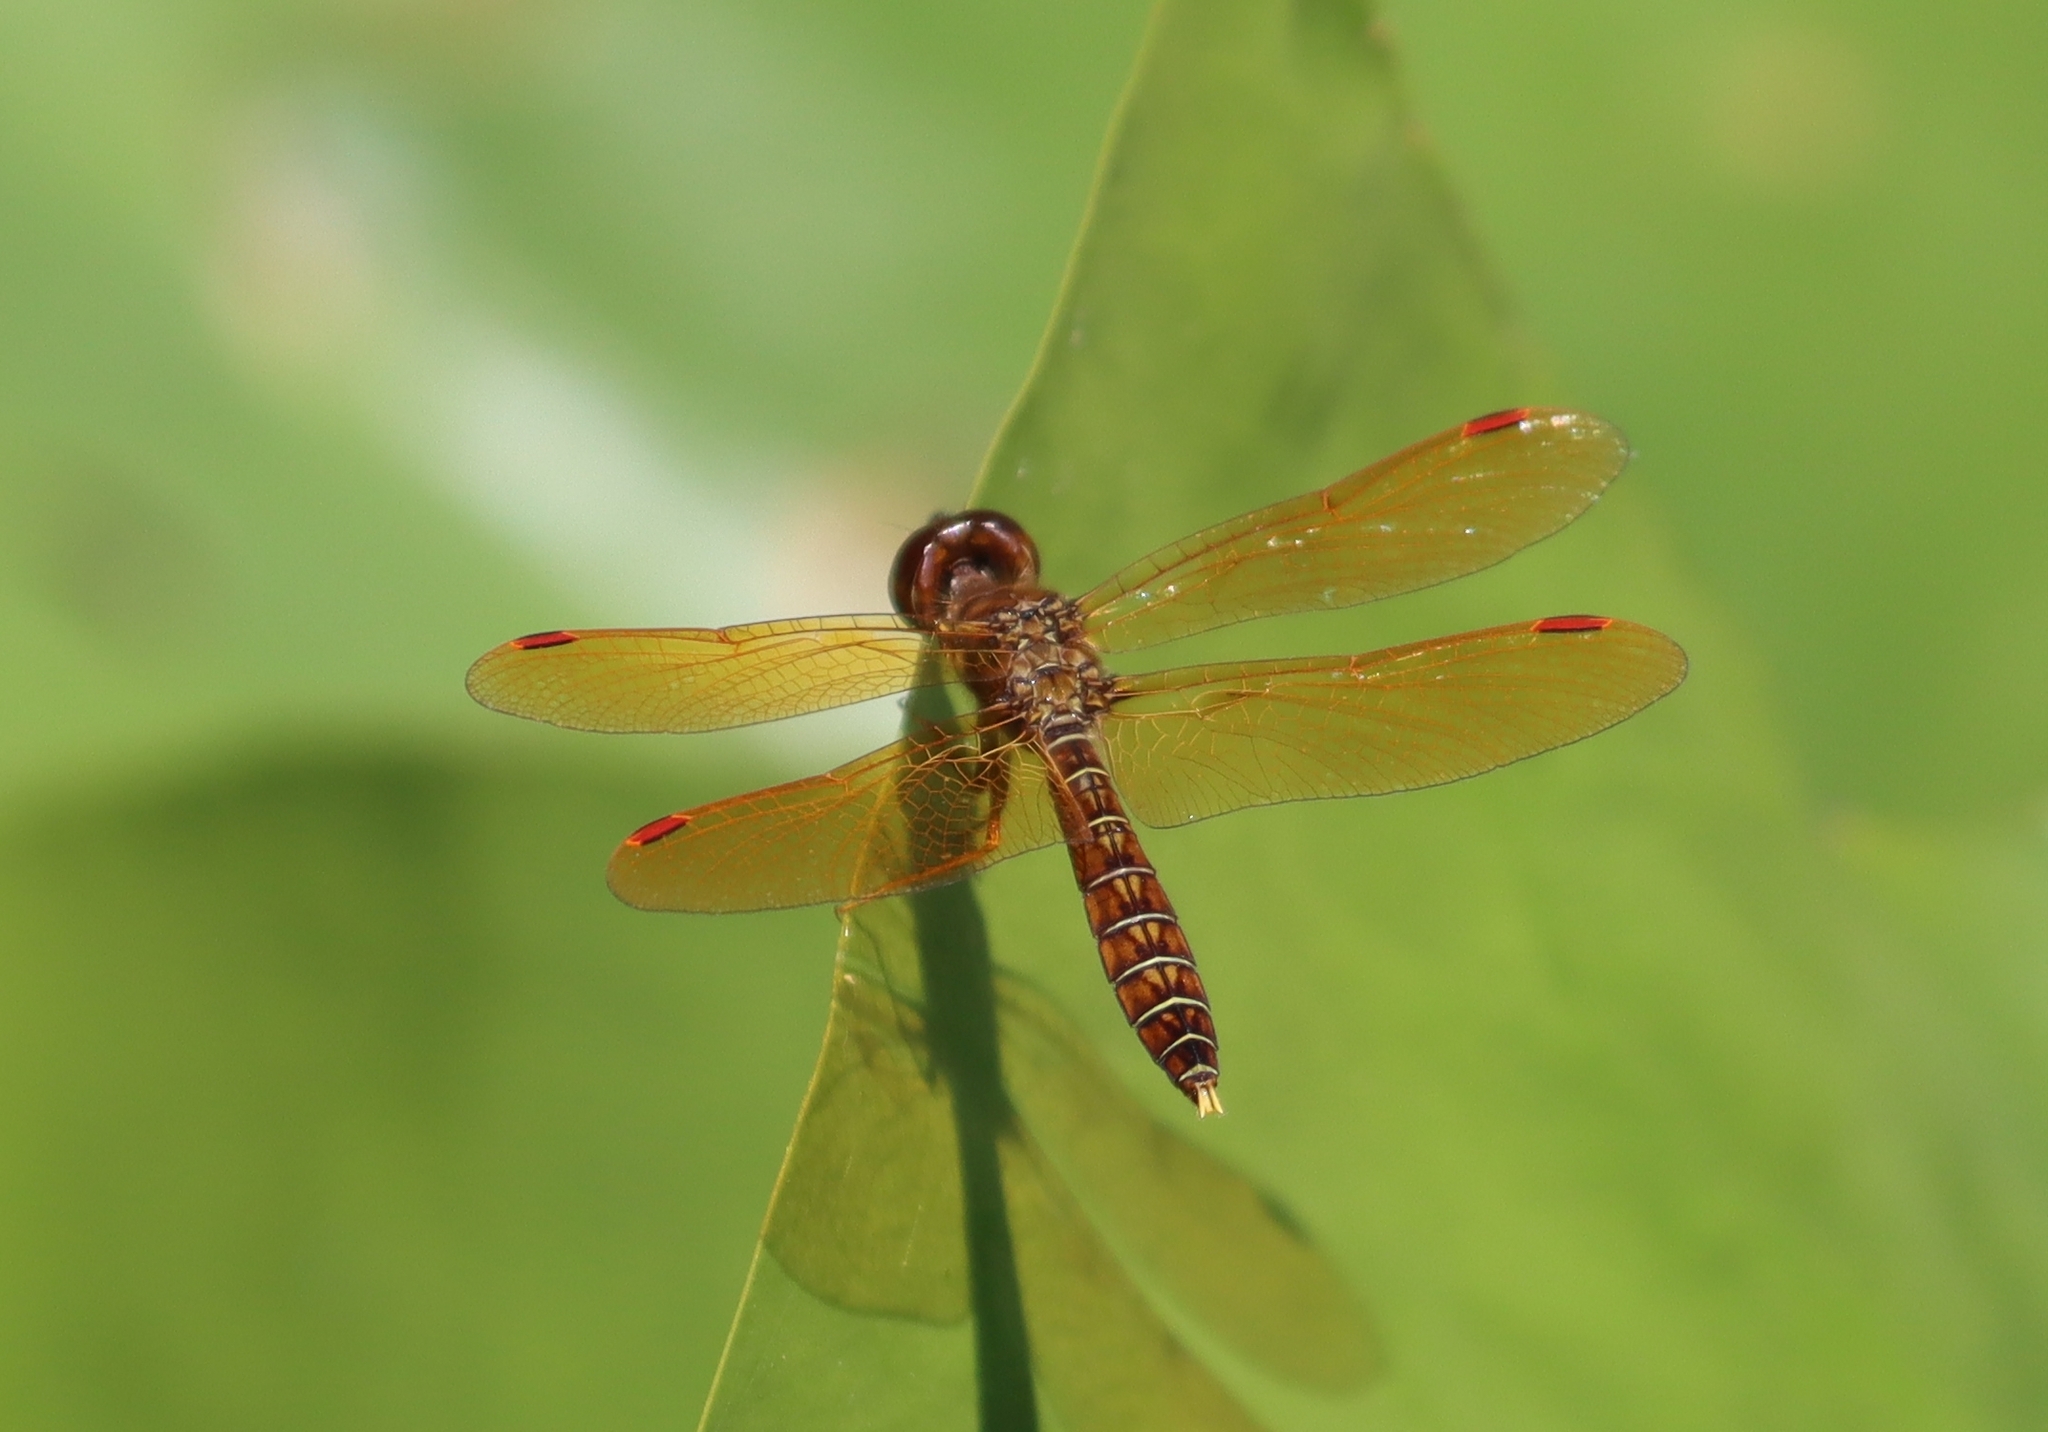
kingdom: Animalia
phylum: Arthropoda
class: Insecta
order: Odonata
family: Libellulidae
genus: Perithemis
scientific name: Perithemis tenera
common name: Eastern amberwing
